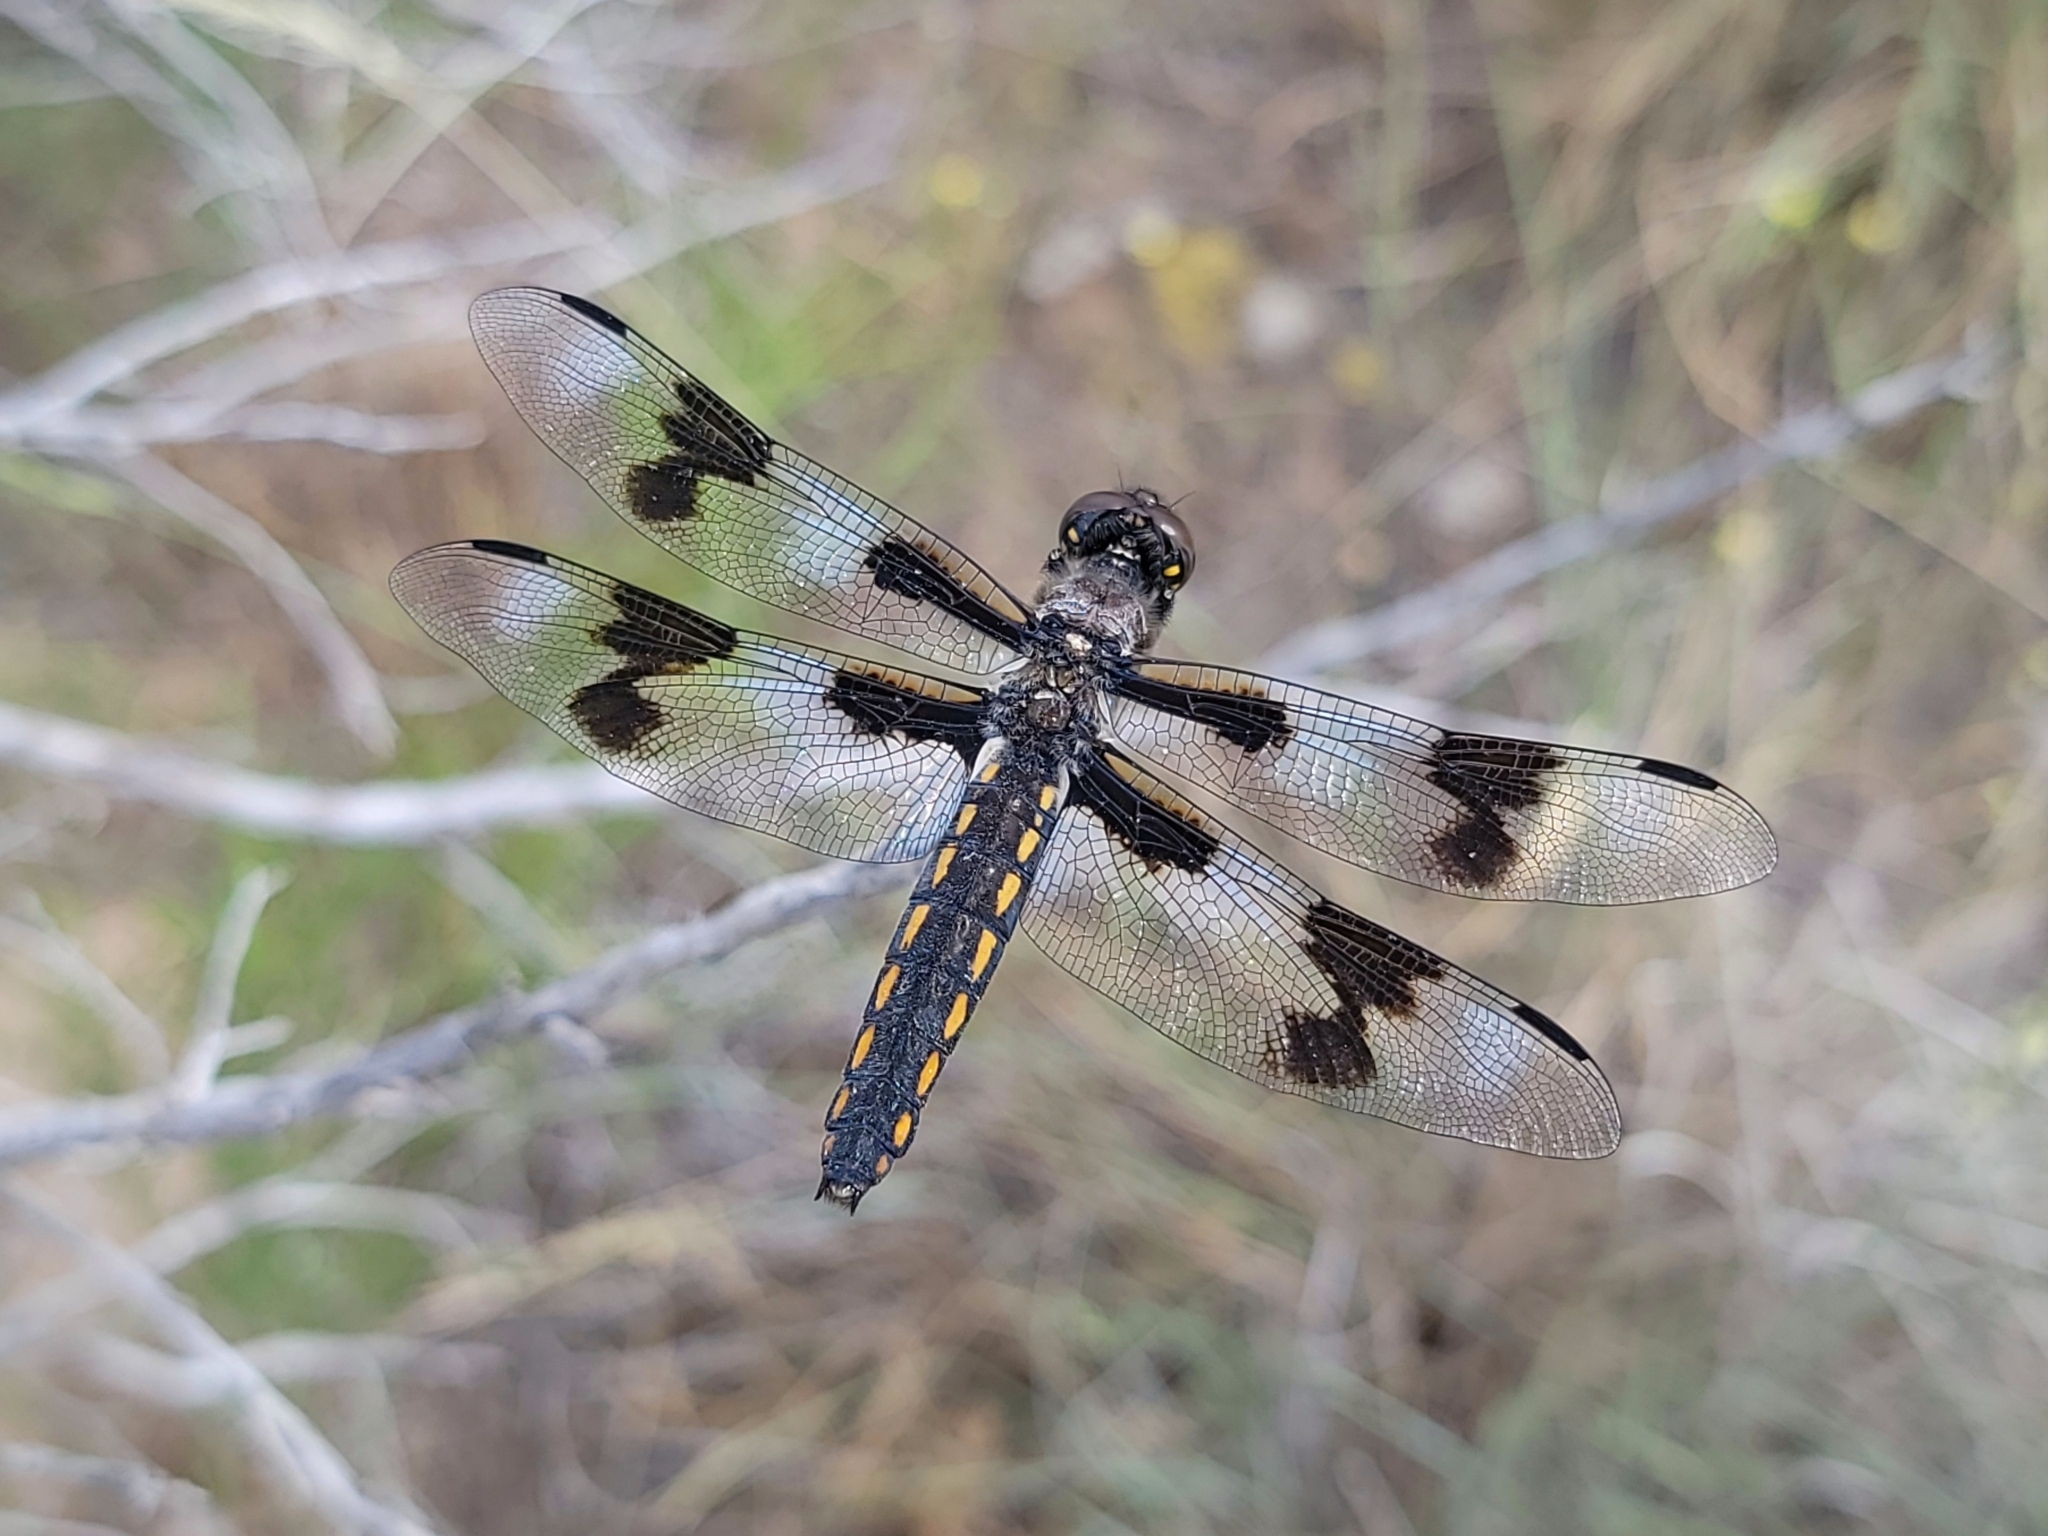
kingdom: Animalia
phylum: Arthropoda
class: Insecta
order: Odonata
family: Libellulidae
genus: Libellula
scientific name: Libellula forensis
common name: Eight-spotted skimmer
